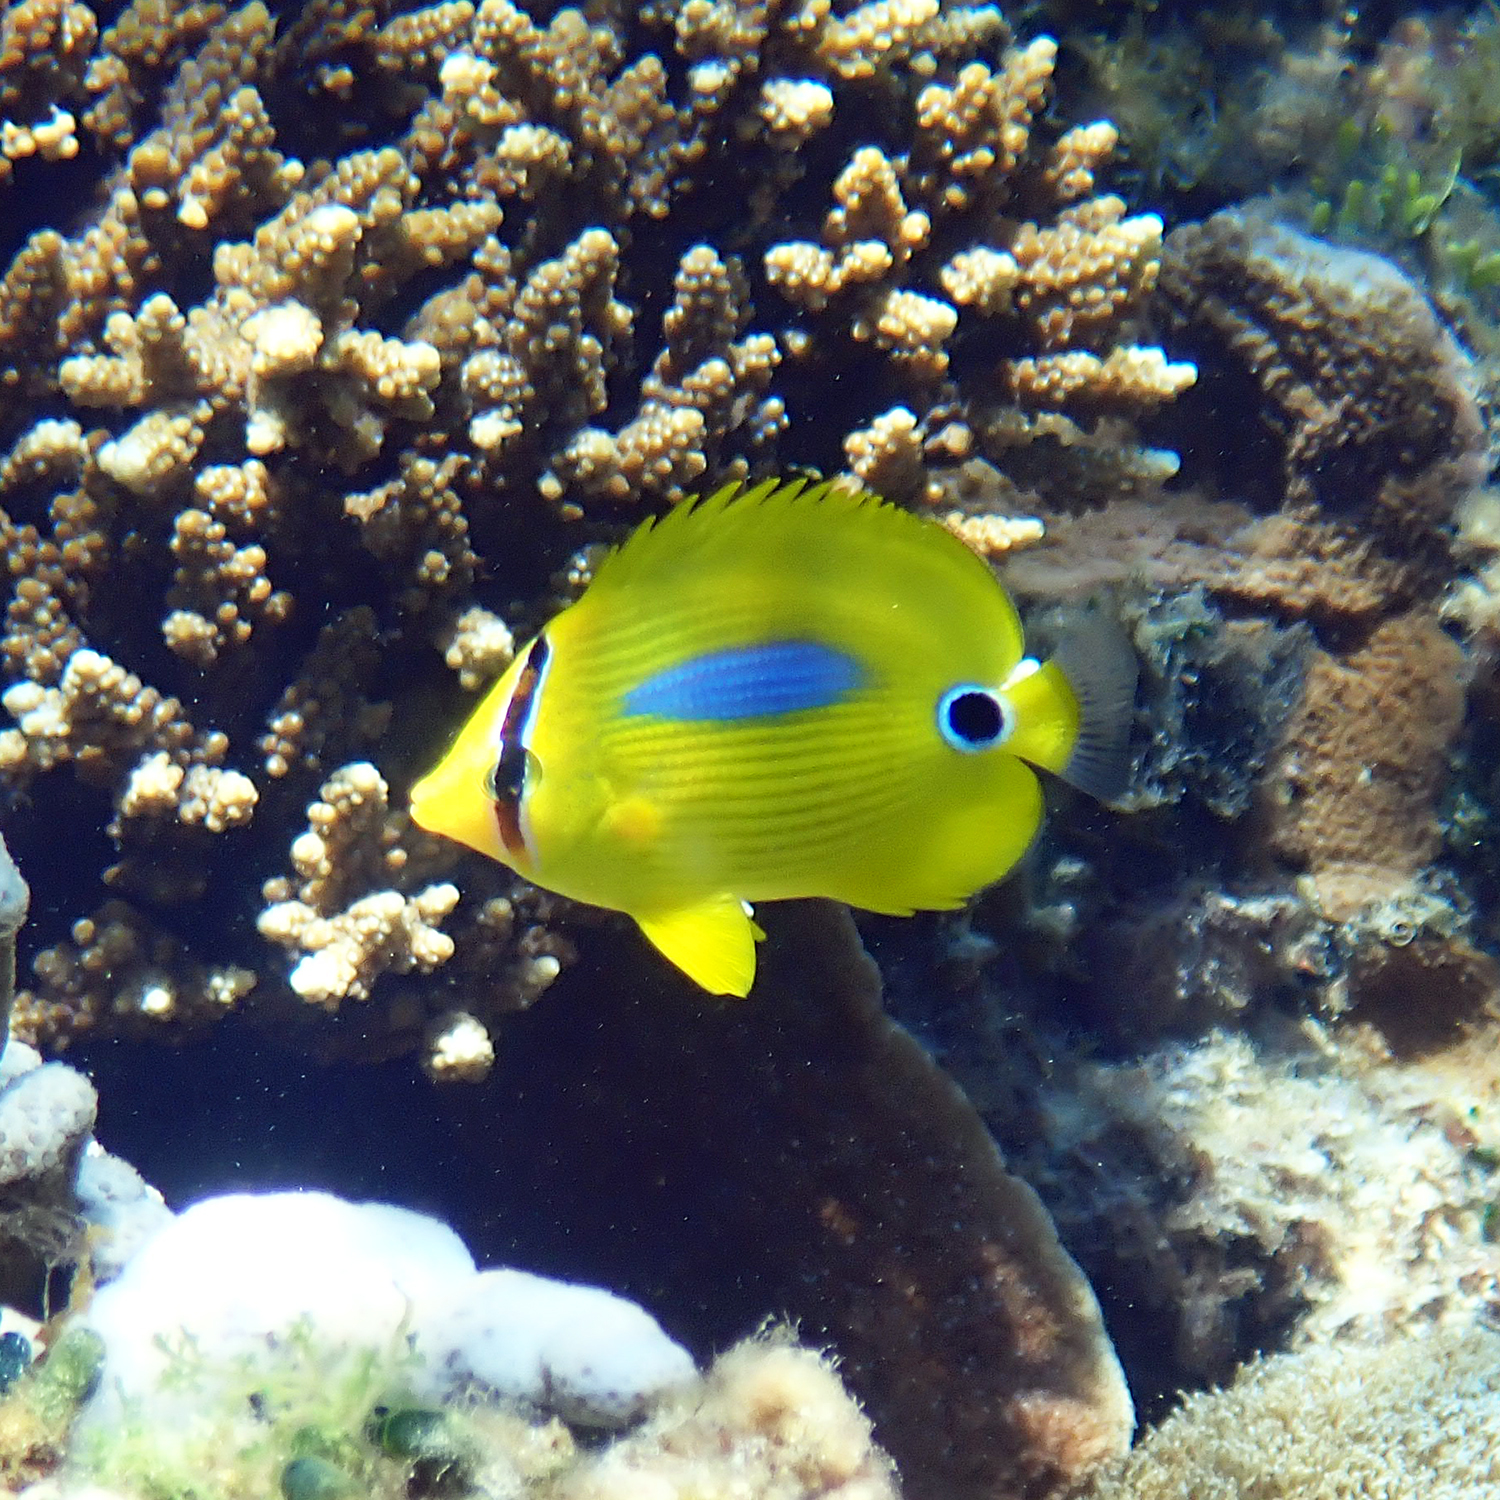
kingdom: Animalia
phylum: Chordata
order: Perciformes
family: Chaetodontidae
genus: Chaetodon
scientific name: Chaetodon plebeius
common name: Bluespot butterflyfish
